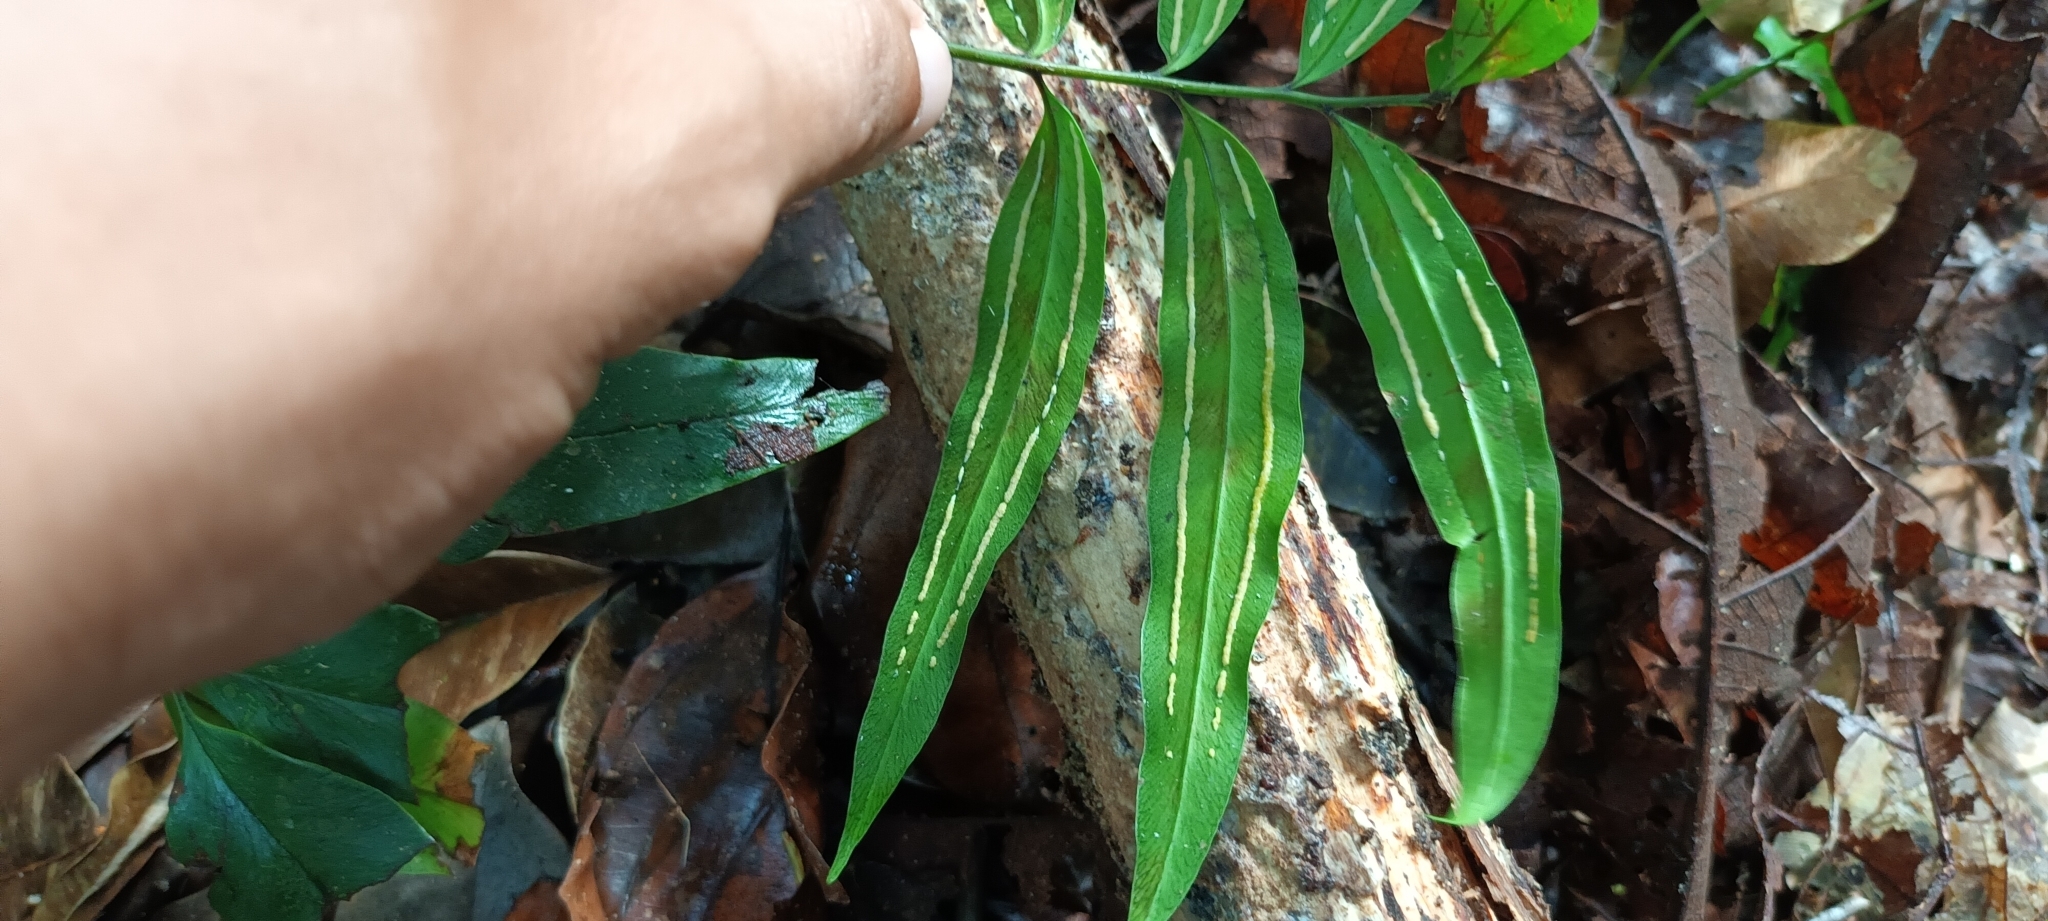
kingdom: Plantae
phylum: Tracheophyta
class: Polypodiopsida
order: Polypodiales
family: Pteridaceae
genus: Taenitis
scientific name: Taenitis blechnoides
